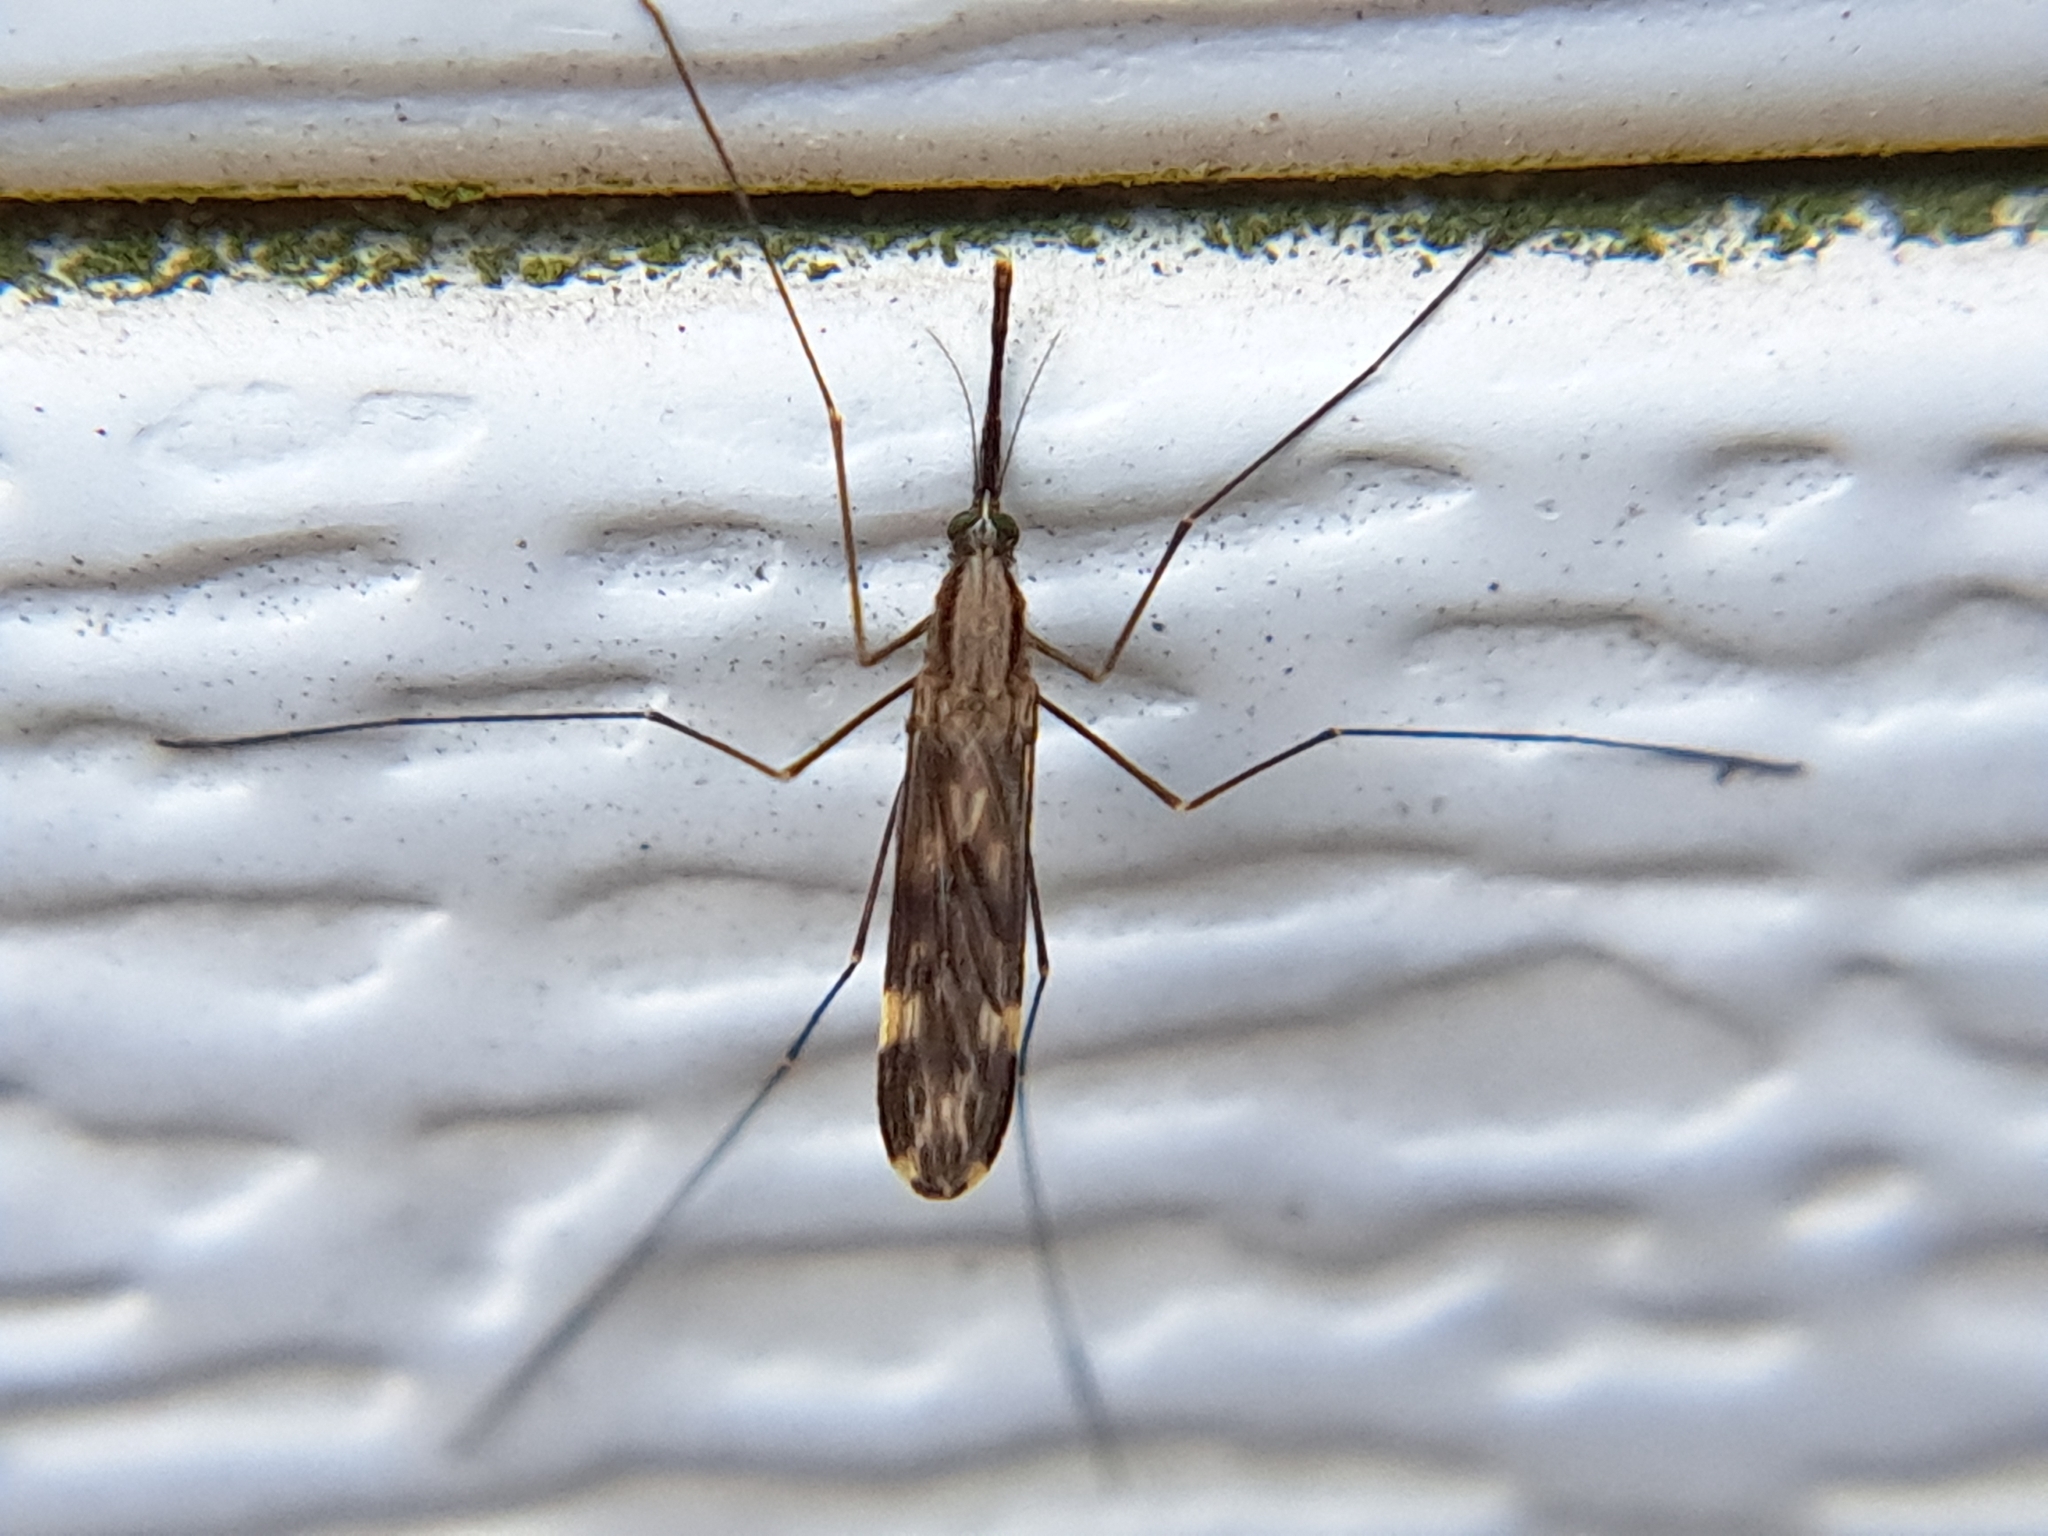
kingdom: Animalia
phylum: Arthropoda
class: Insecta
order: Diptera
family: Culicidae
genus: Anopheles
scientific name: Anopheles punctipennis
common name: Woodland malaria mosquito
